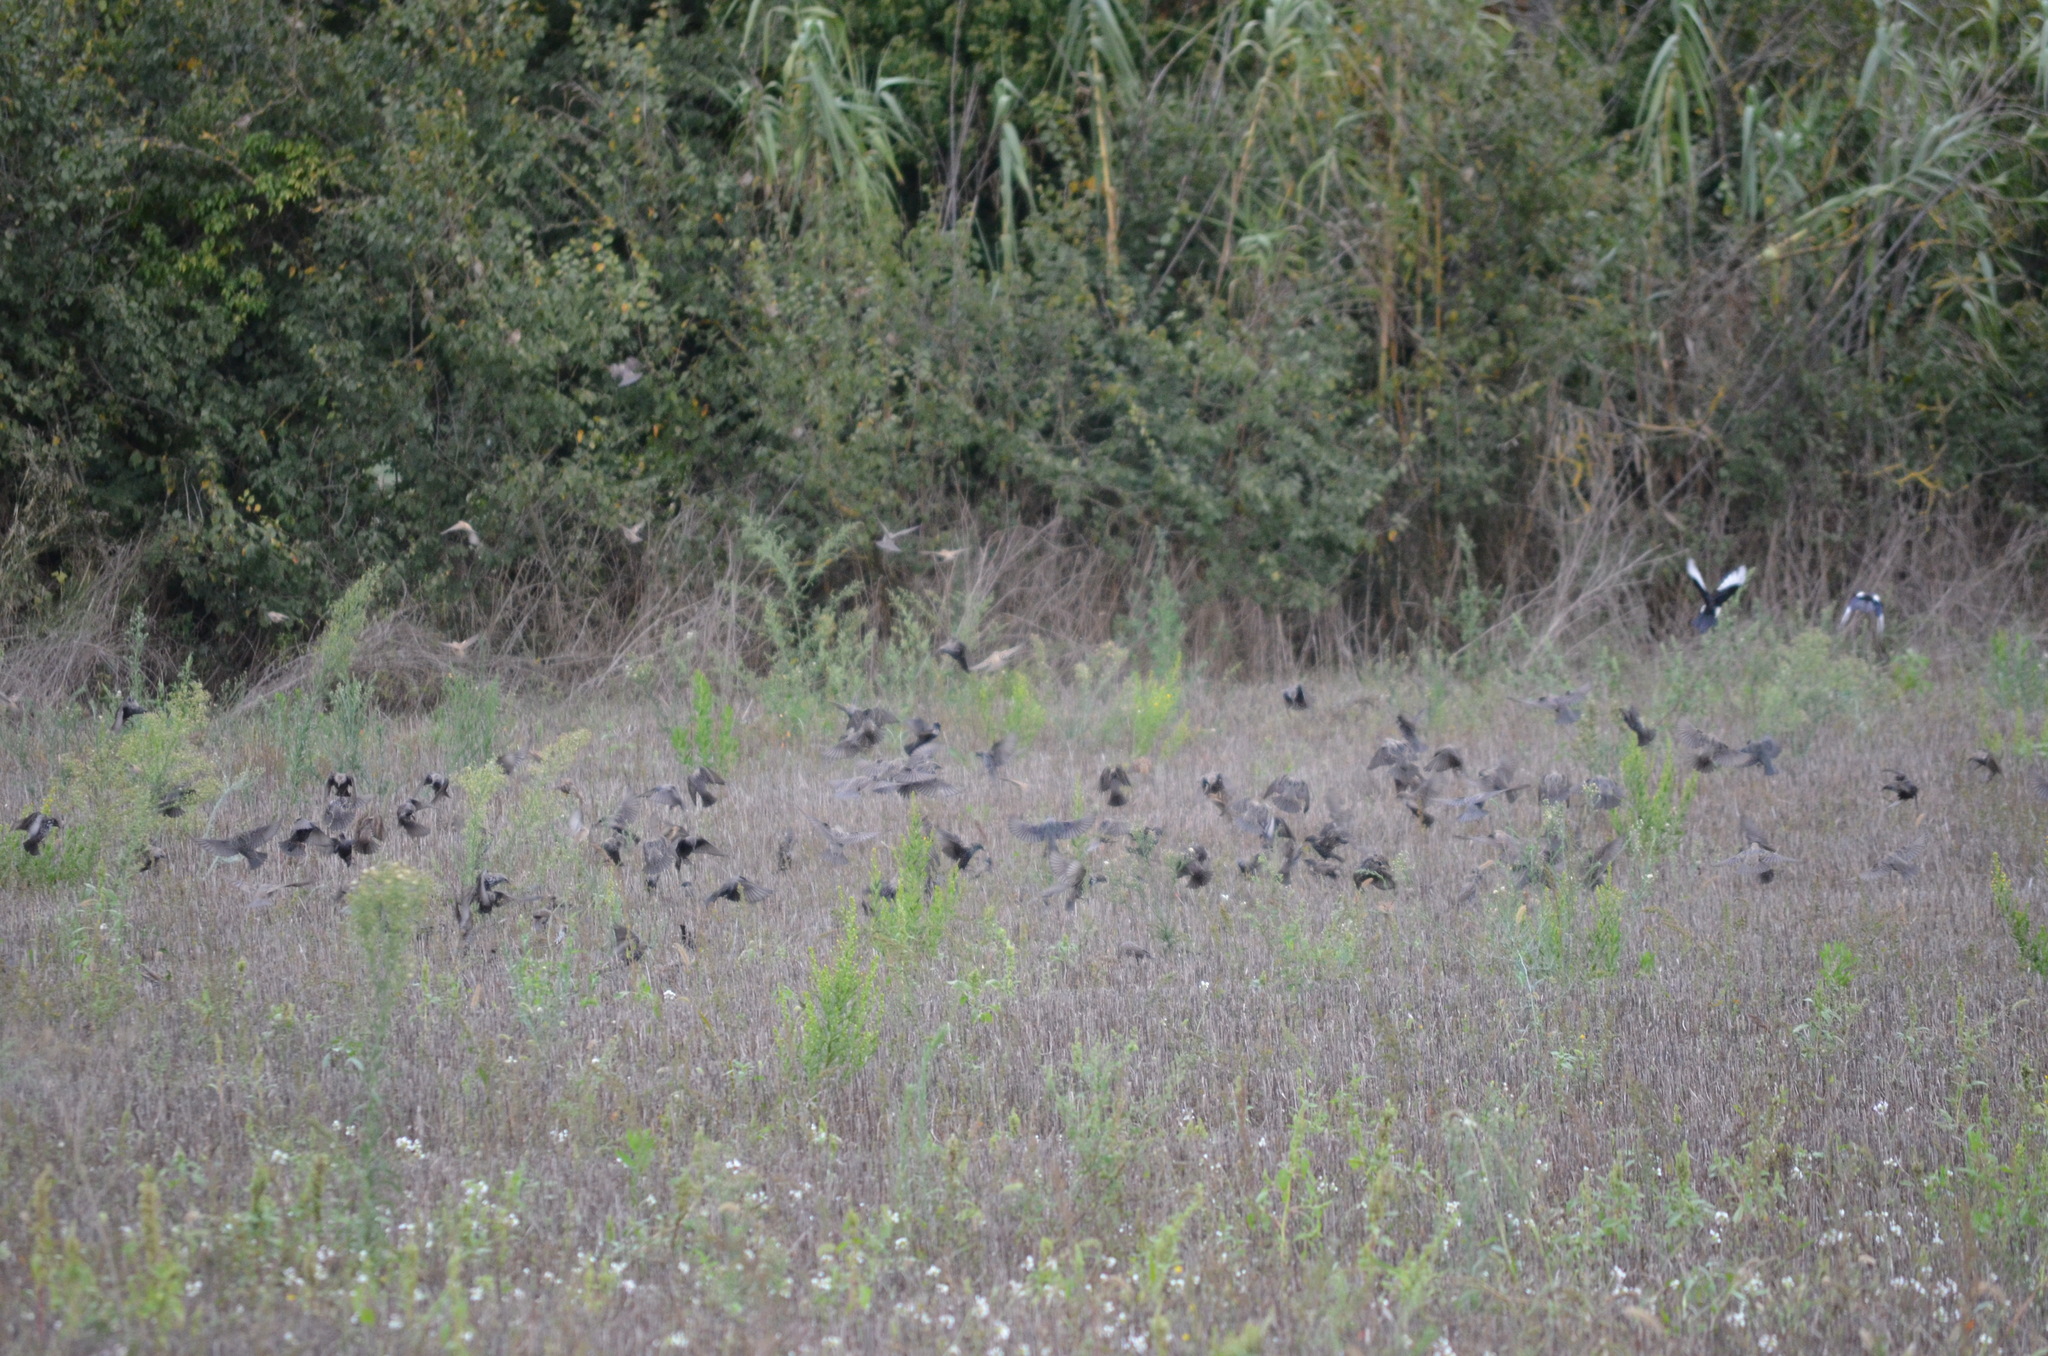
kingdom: Animalia
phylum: Chordata
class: Aves
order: Passeriformes
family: Sturnidae
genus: Sturnus
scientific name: Sturnus vulgaris
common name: Common starling
